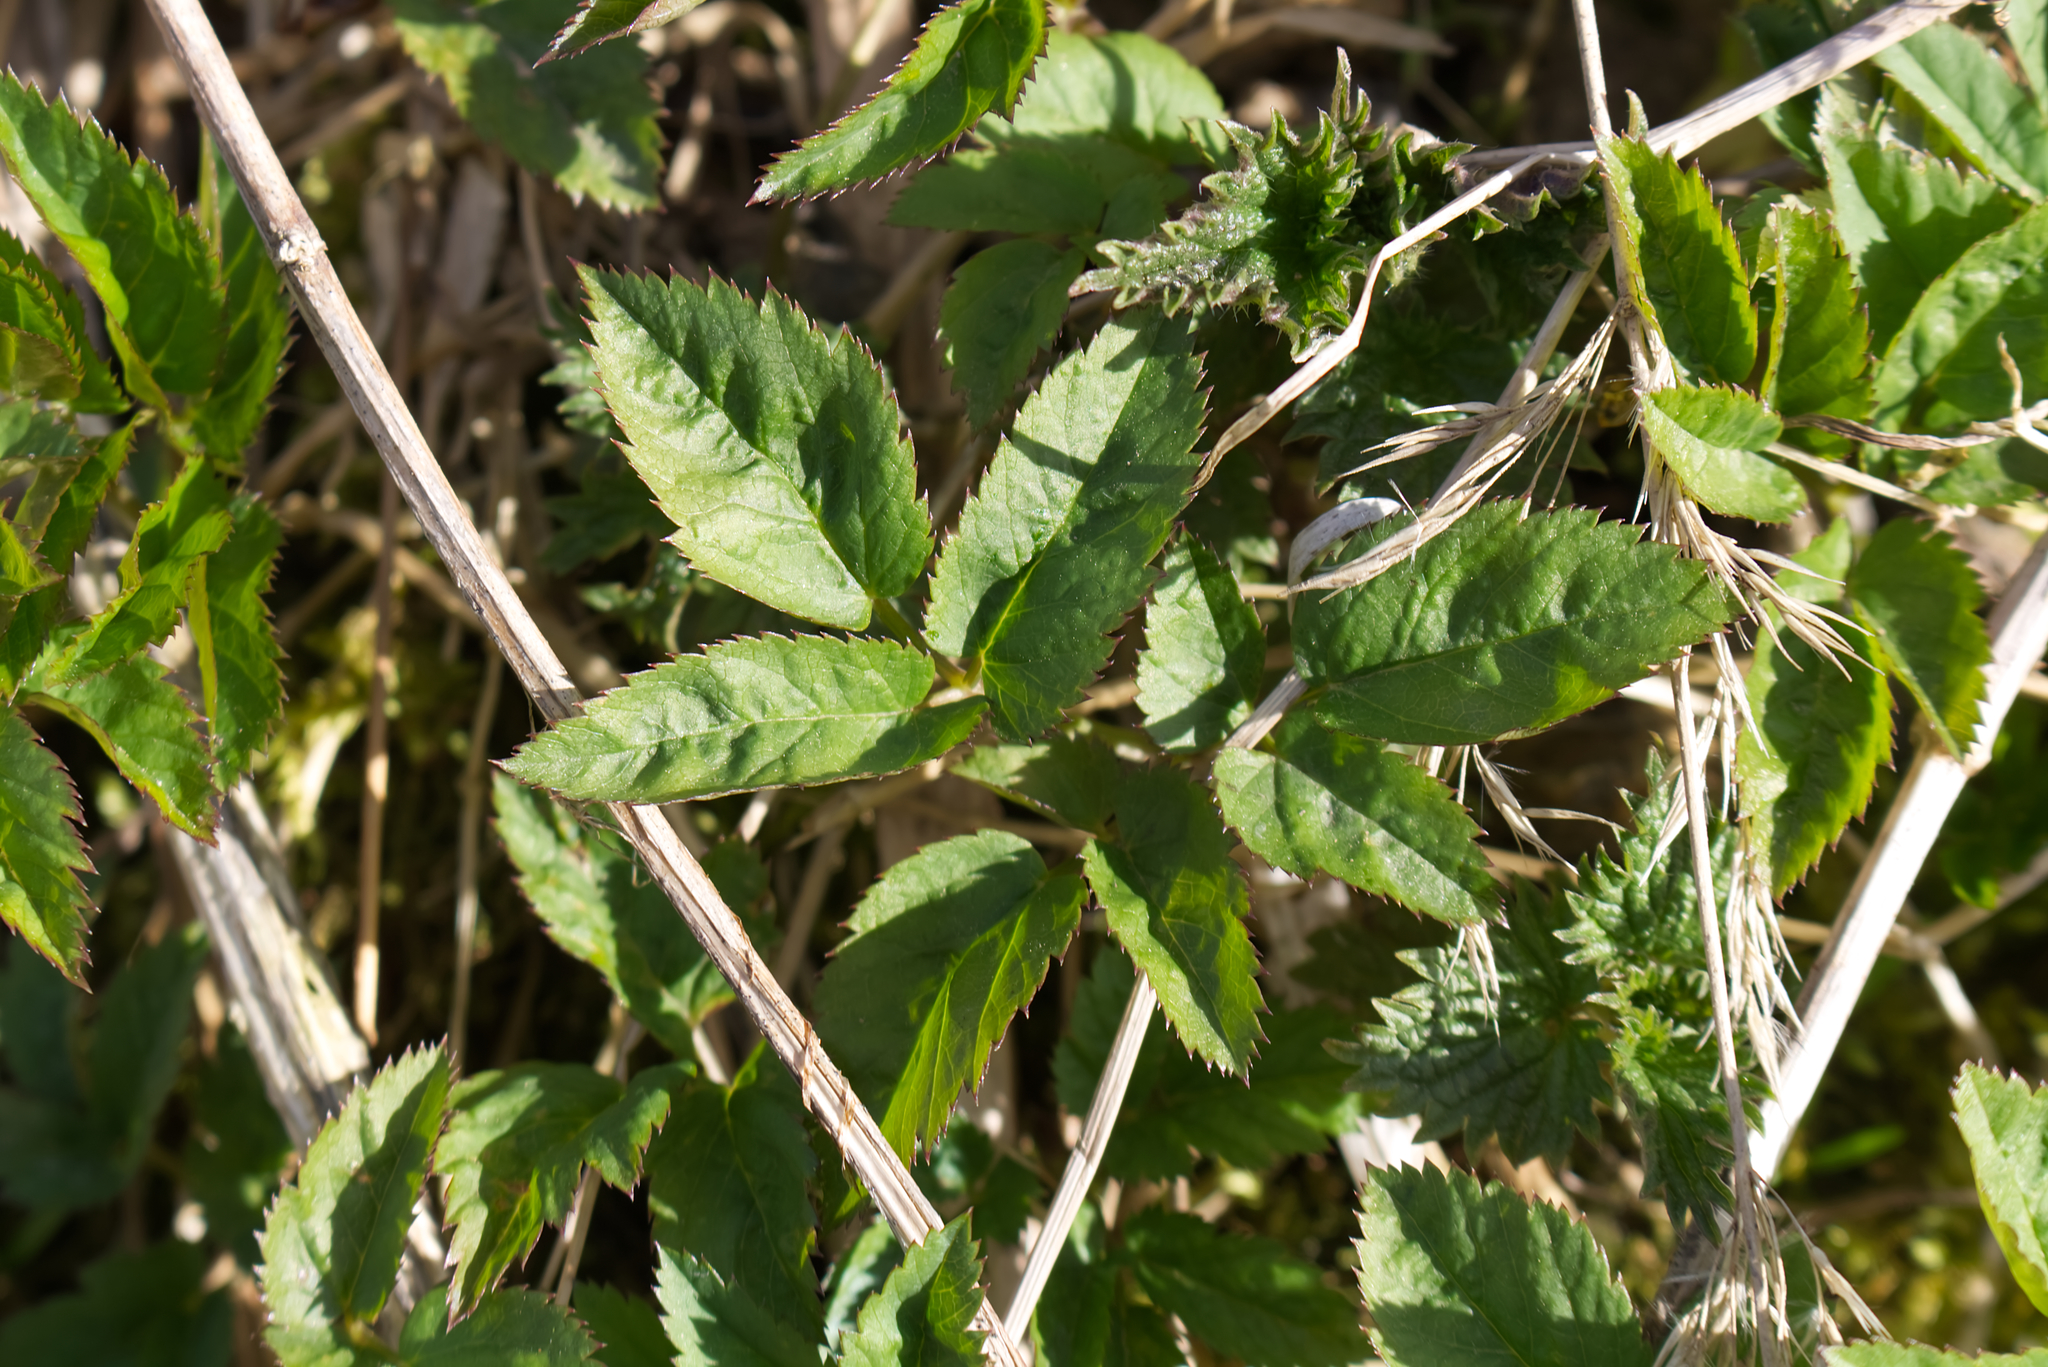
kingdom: Plantae
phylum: Tracheophyta
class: Magnoliopsida
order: Apiales
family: Apiaceae
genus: Aegopodium
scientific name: Aegopodium podagraria
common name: Ground-elder
